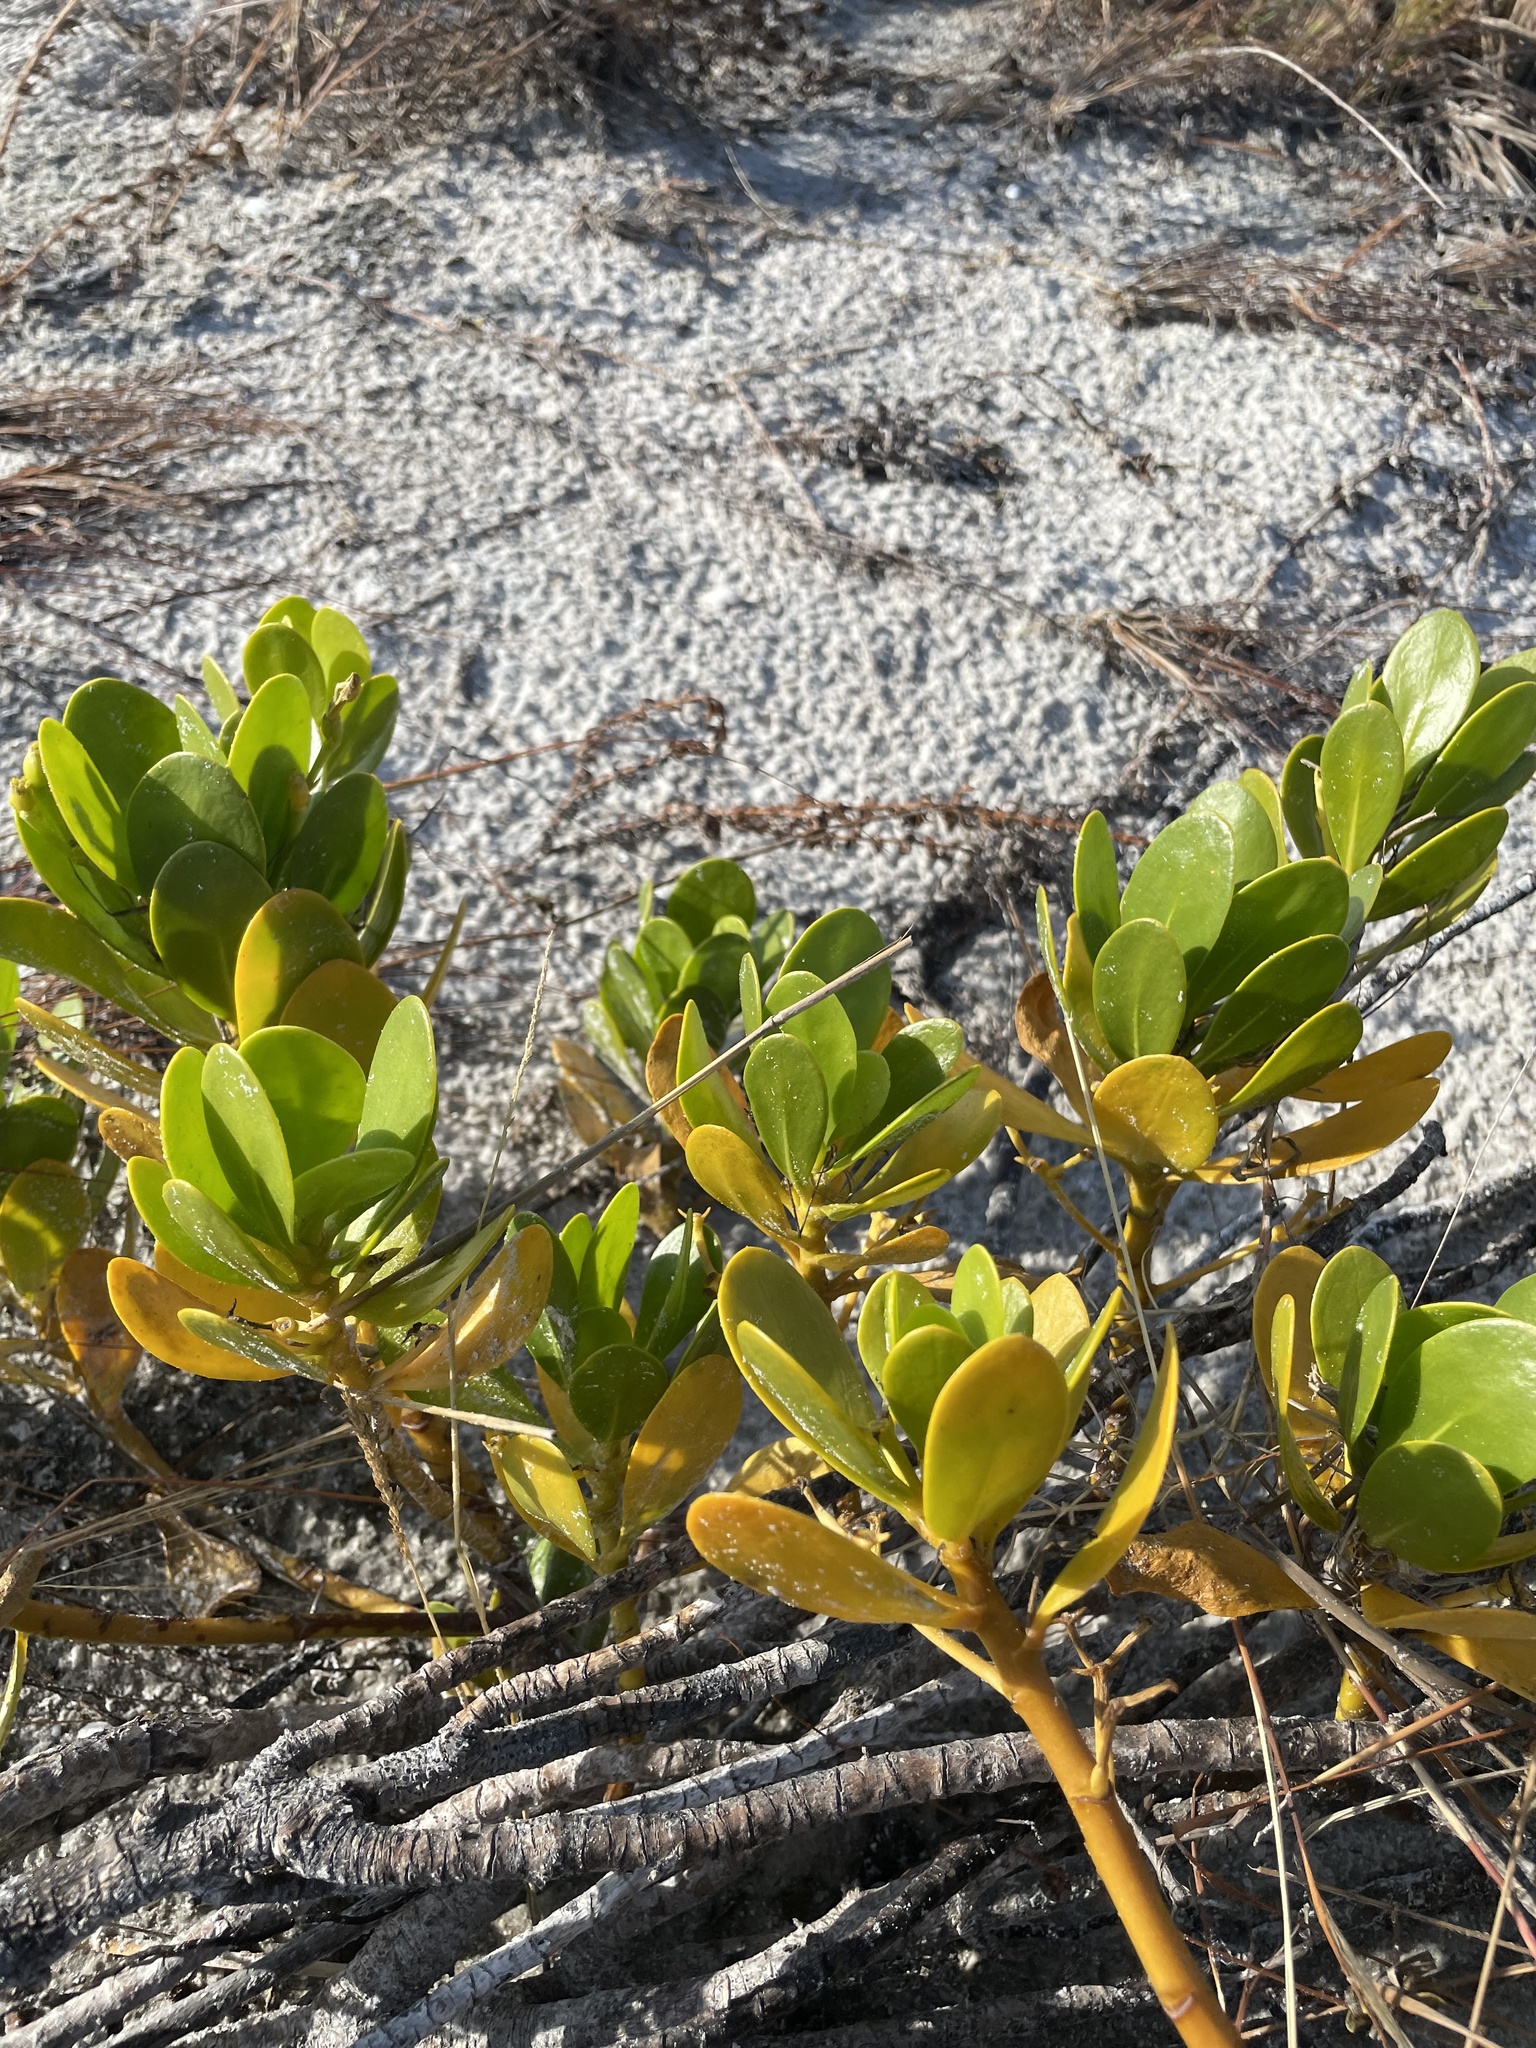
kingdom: Plantae
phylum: Tracheophyta
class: Magnoliopsida
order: Asterales
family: Goodeniaceae
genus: Scaevola
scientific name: Scaevola plumieri
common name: Gull feed
